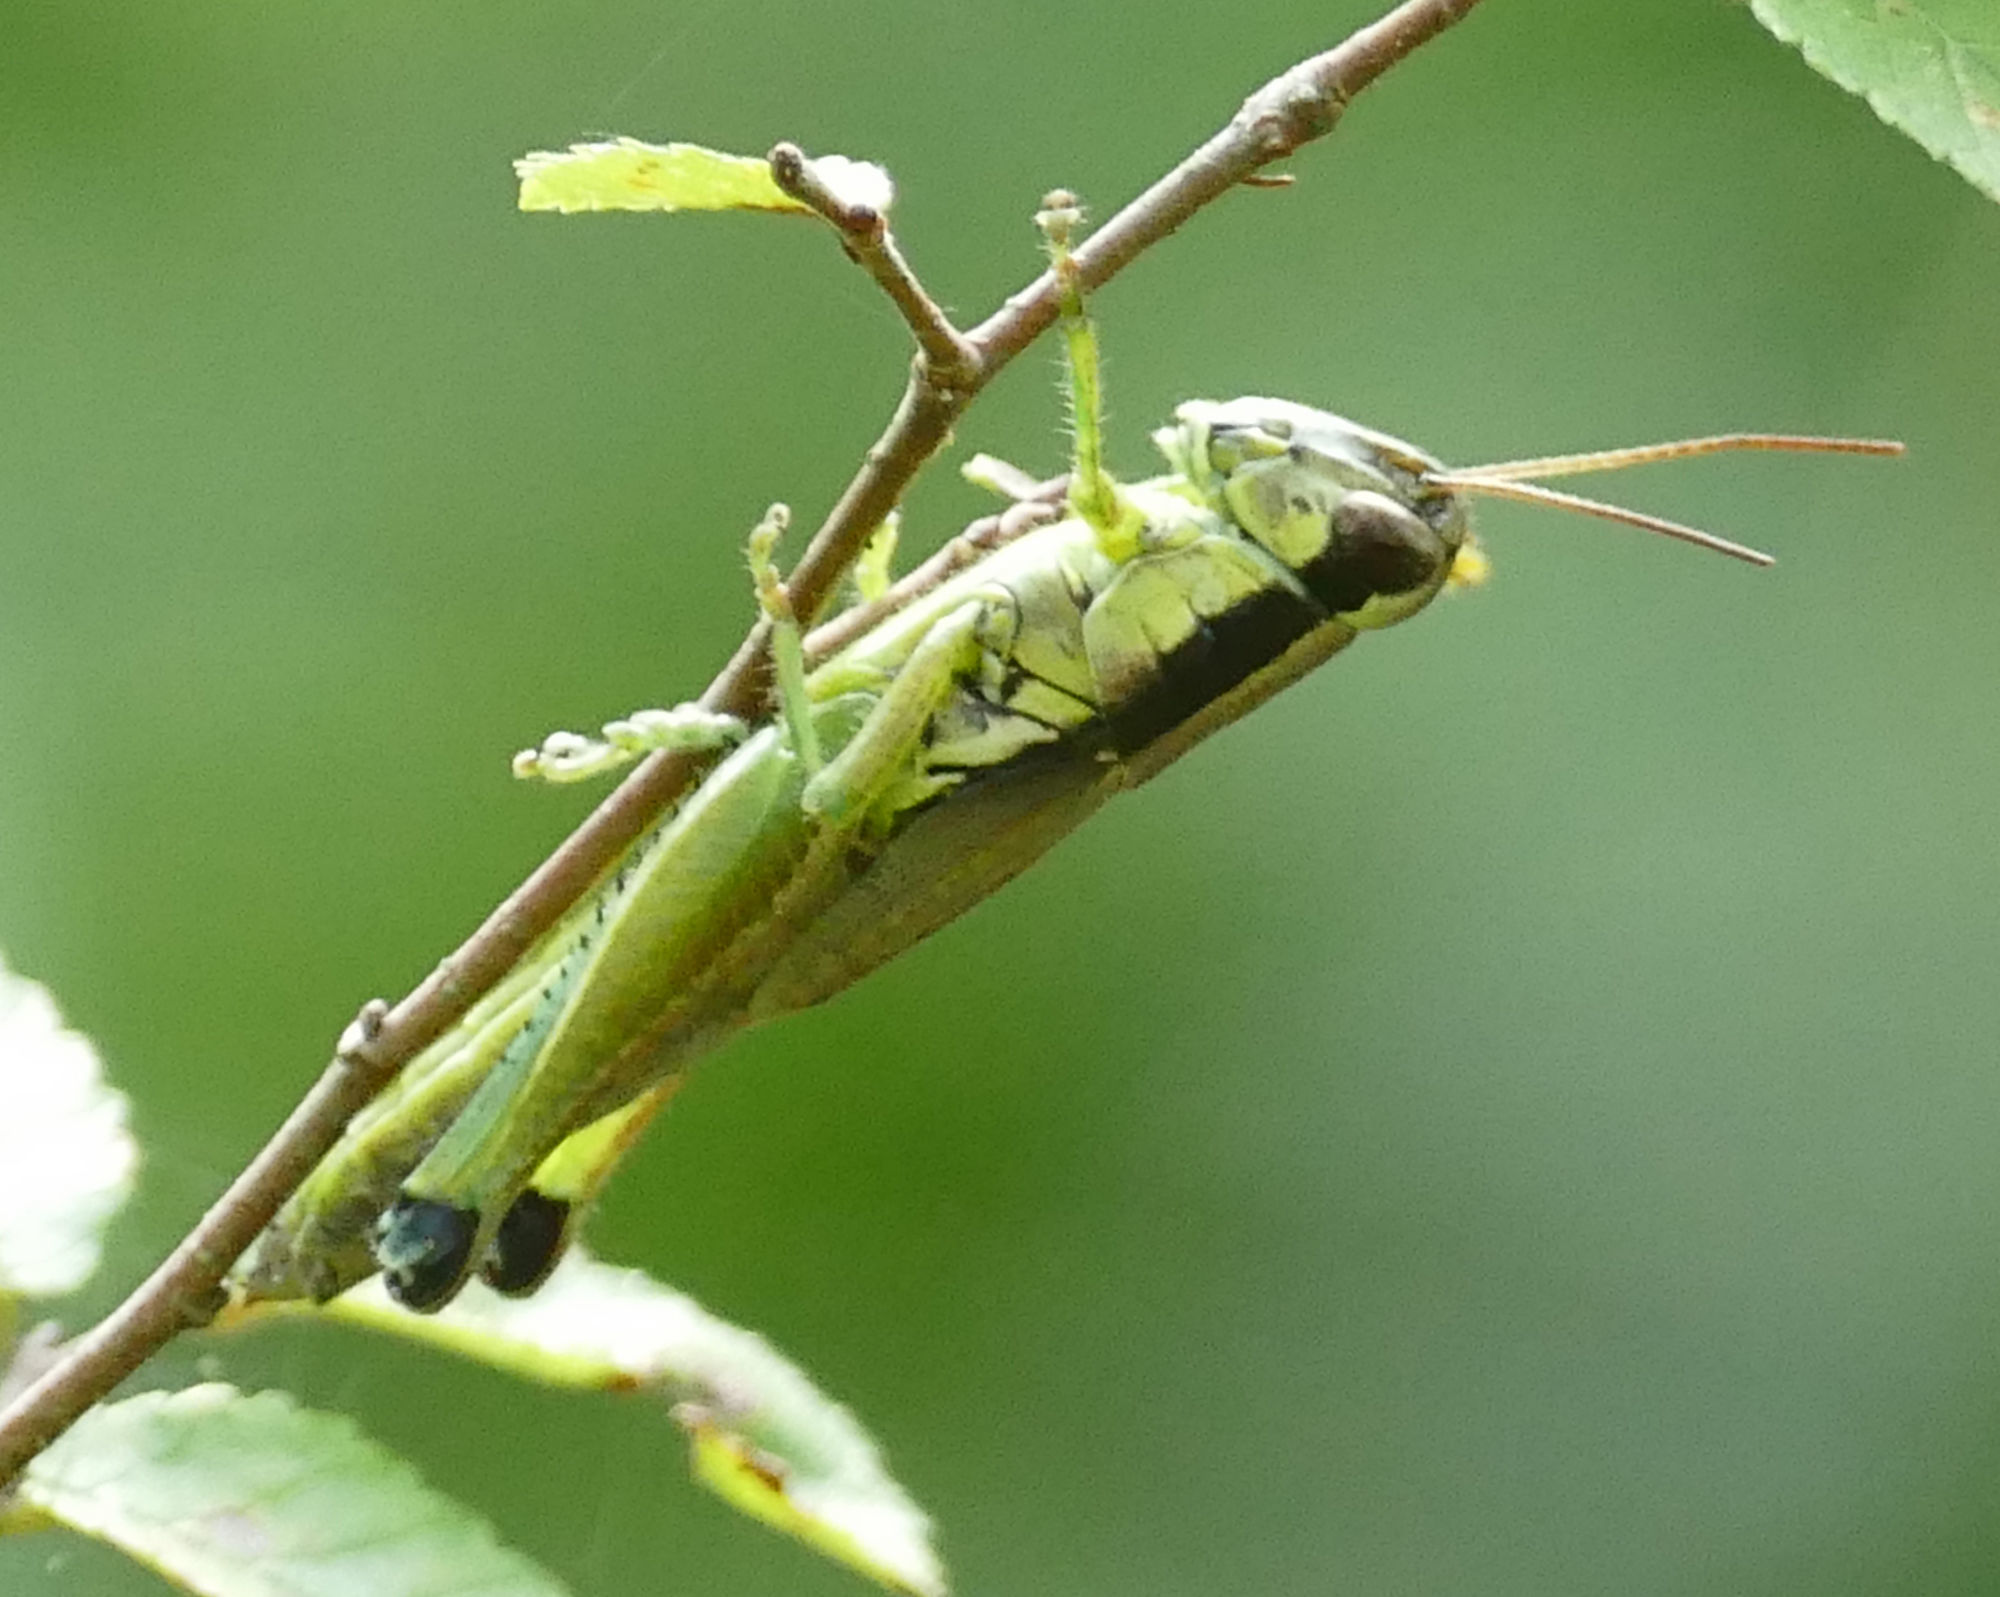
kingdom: Animalia
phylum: Arthropoda
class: Insecta
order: Orthoptera
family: Acrididae
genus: Paroxya
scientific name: Paroxya clavuligera
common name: Olive-green swamp grasshopper
